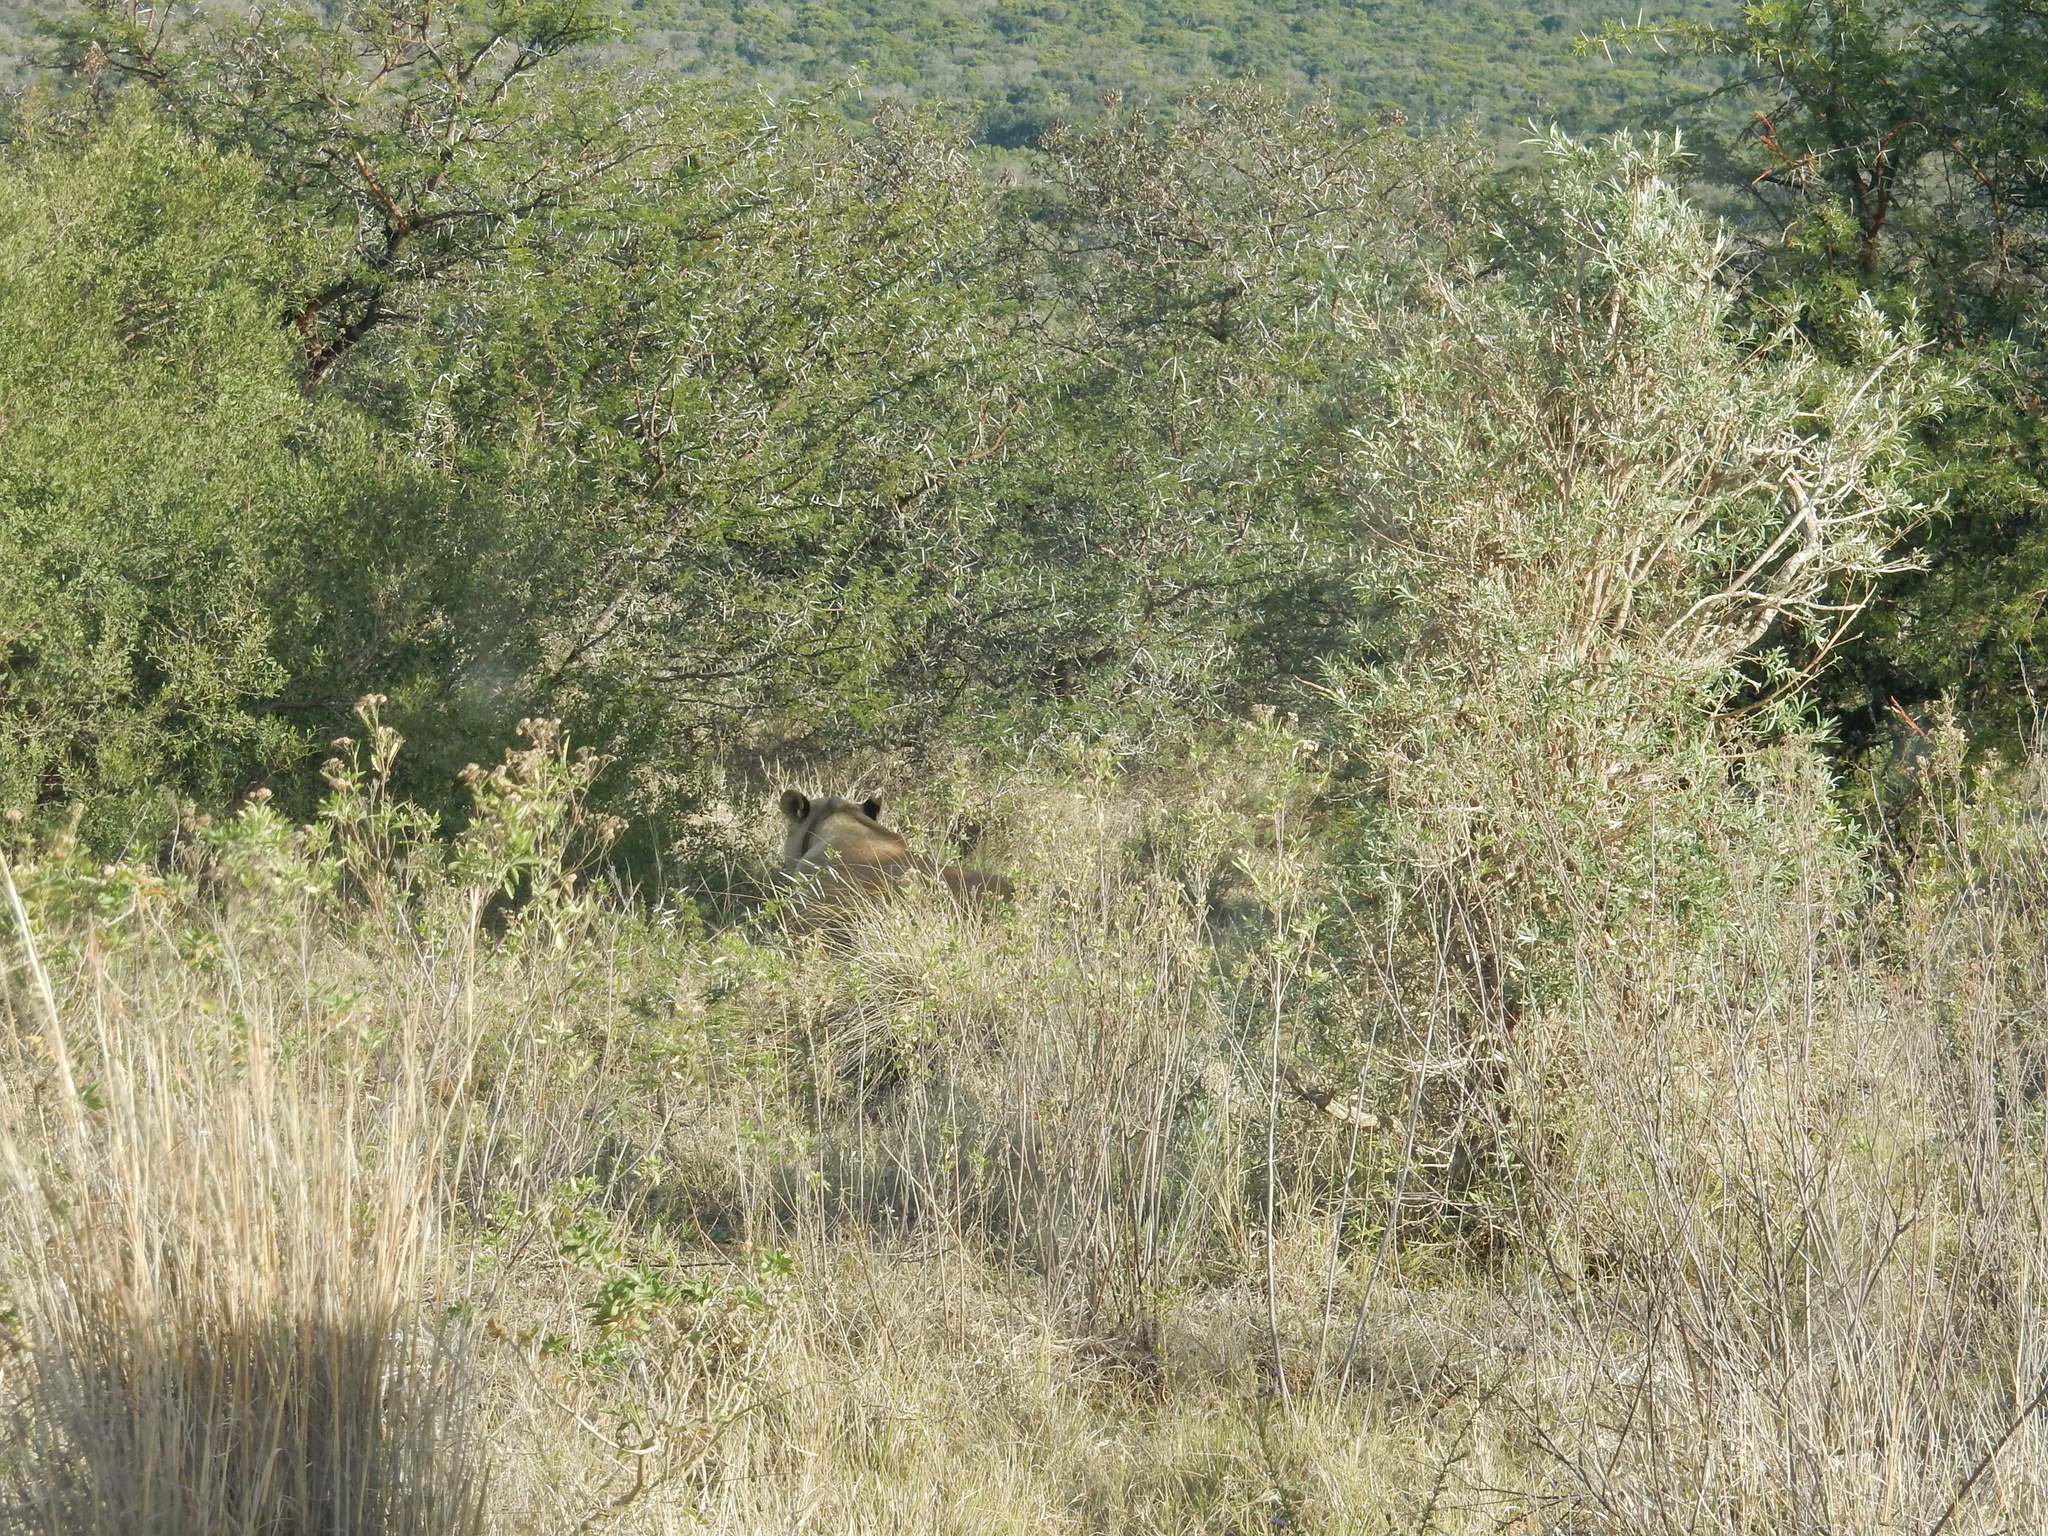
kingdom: Animalia
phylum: Chordata
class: Mammalia
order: Carnivora
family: Felidae
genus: Panthera
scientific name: Panthera leo
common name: Lion
